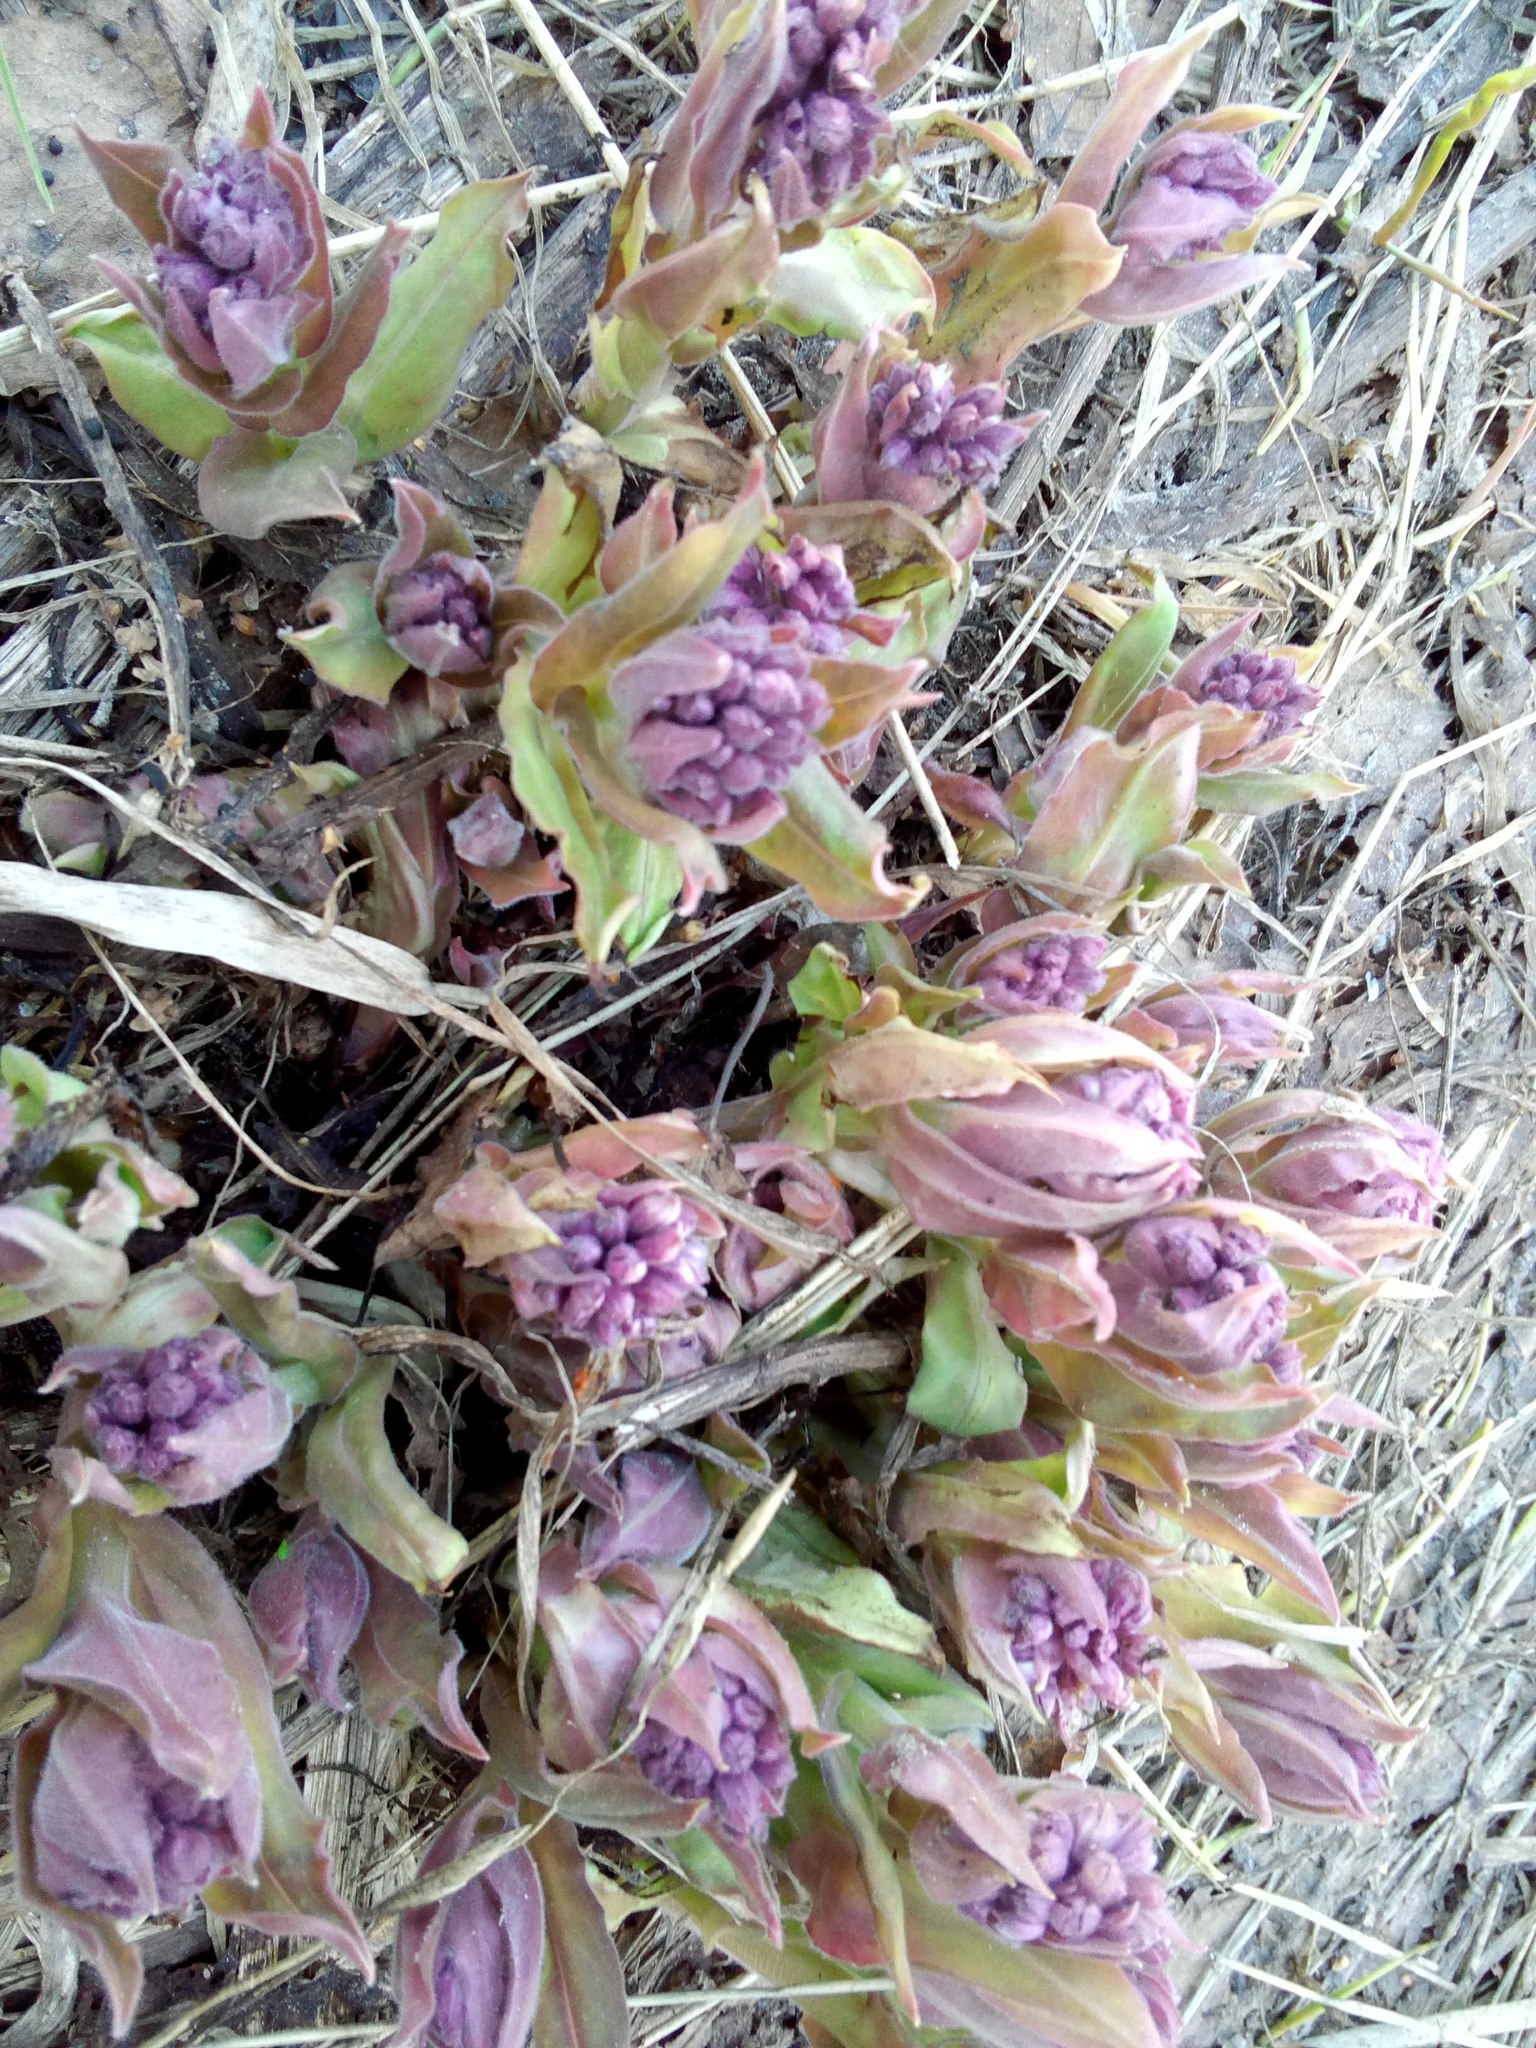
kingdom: Plantae
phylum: Tracheophyta
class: Magnoliopsida
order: Boraginales
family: Boraginaceae
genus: Pulmonaria
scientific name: Pulmonaria mollis
